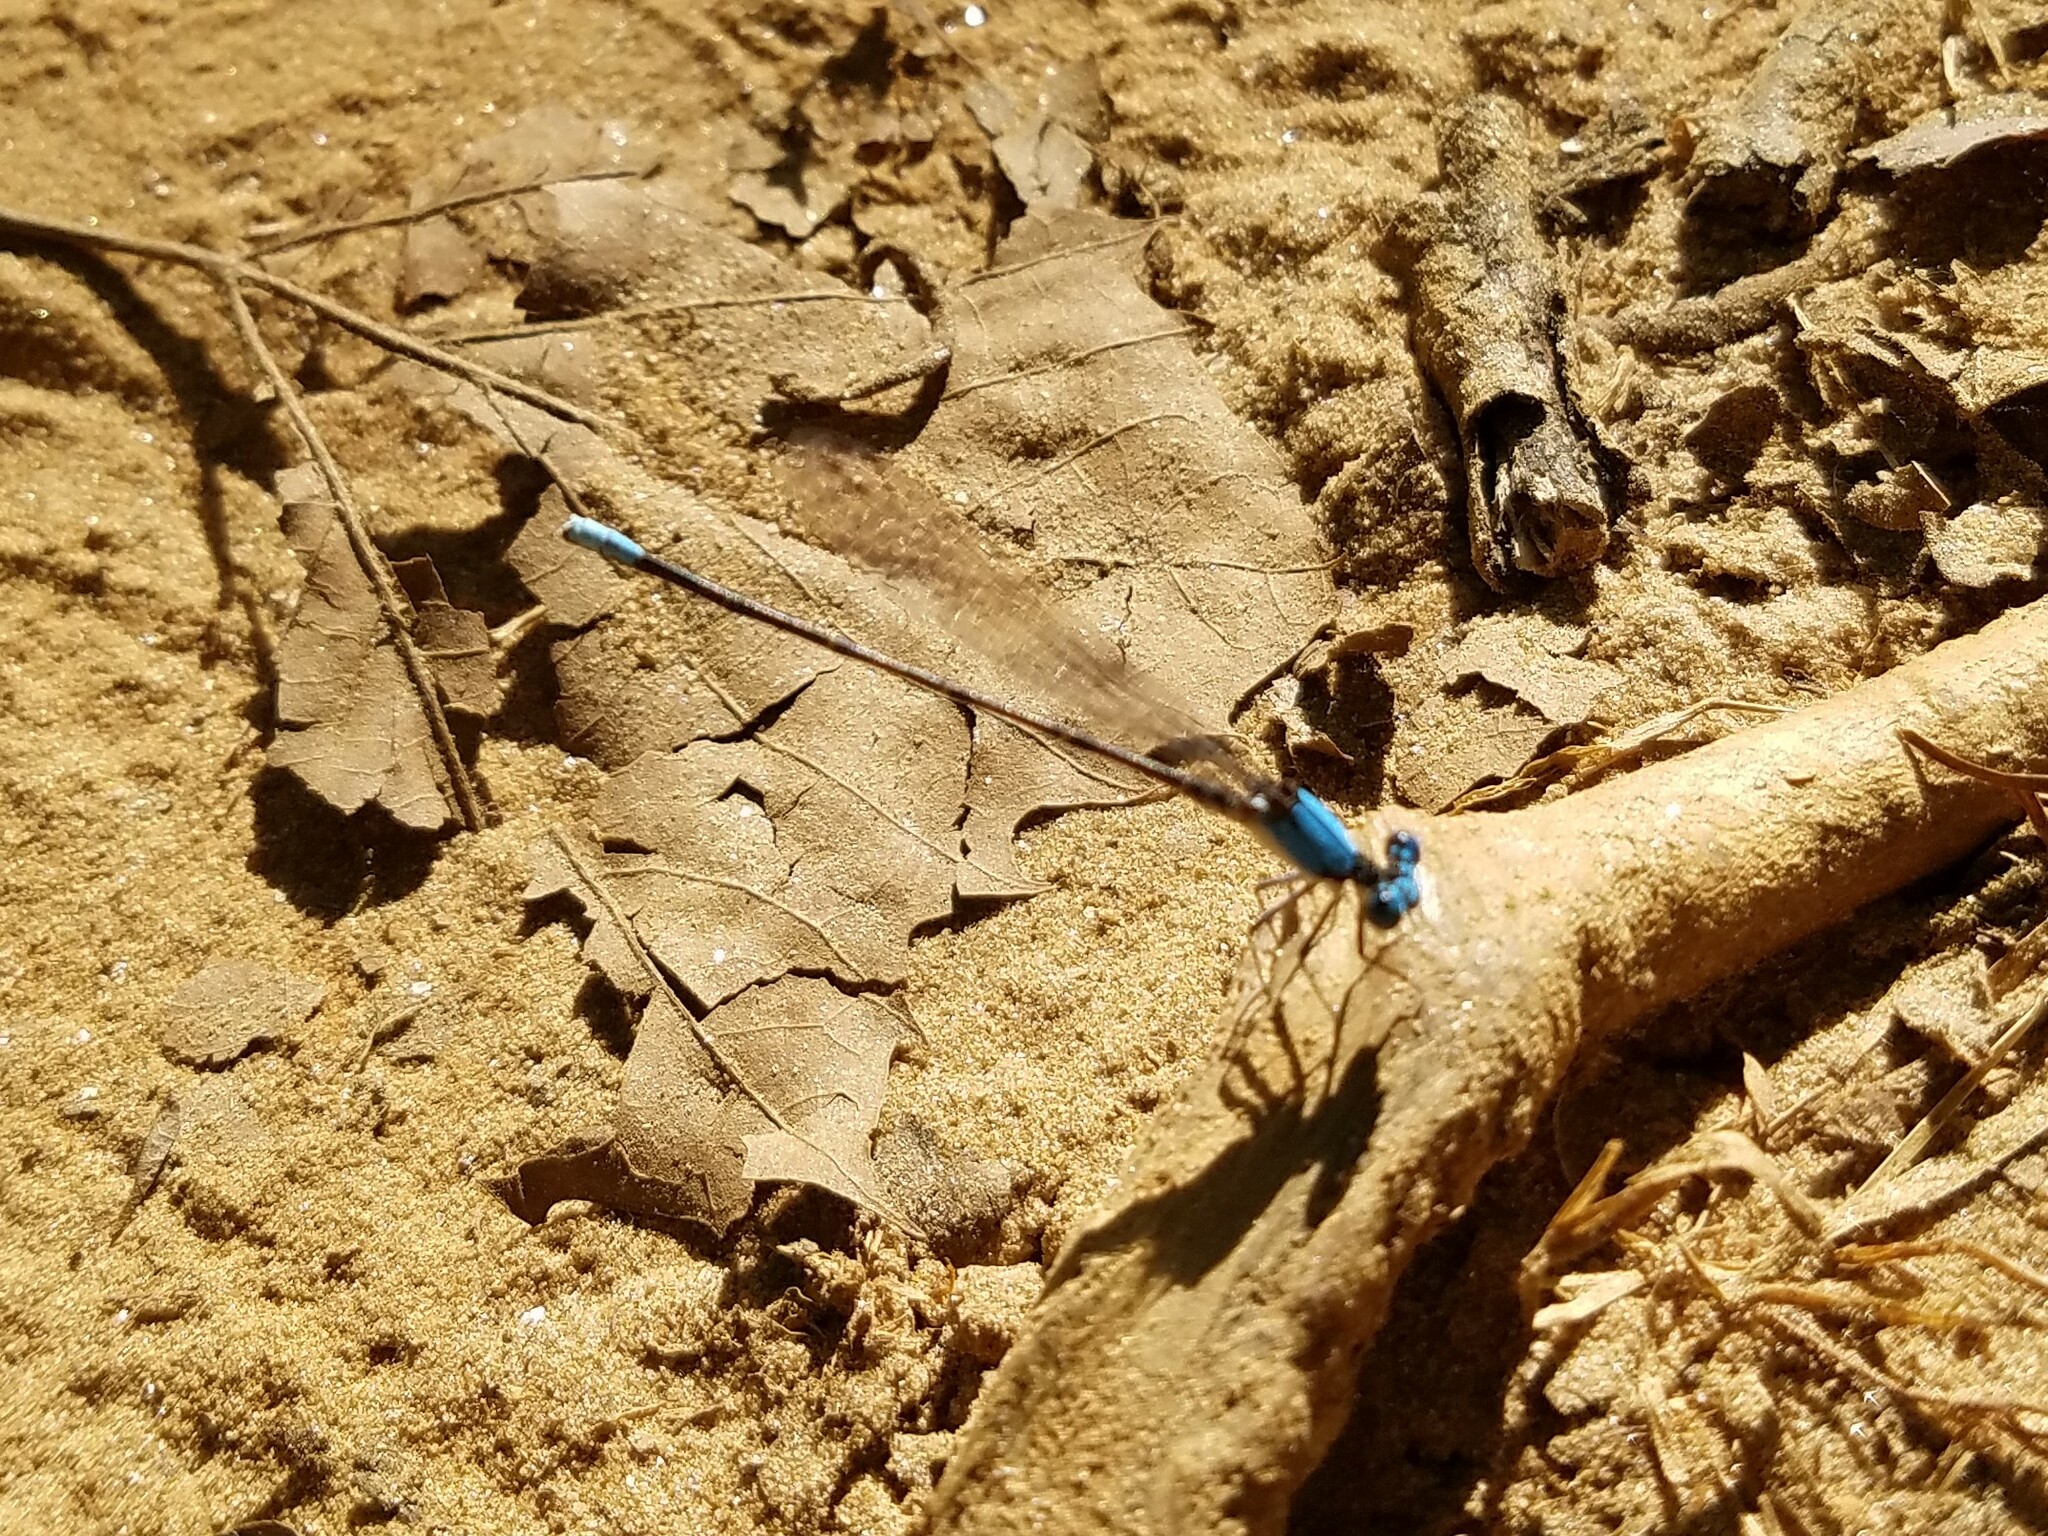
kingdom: Animalia
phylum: Arthropoda
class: Insecta
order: Odonata
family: Coenagrionidae
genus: Argia
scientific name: Argia apicalis
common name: Blue-fronted dancer
